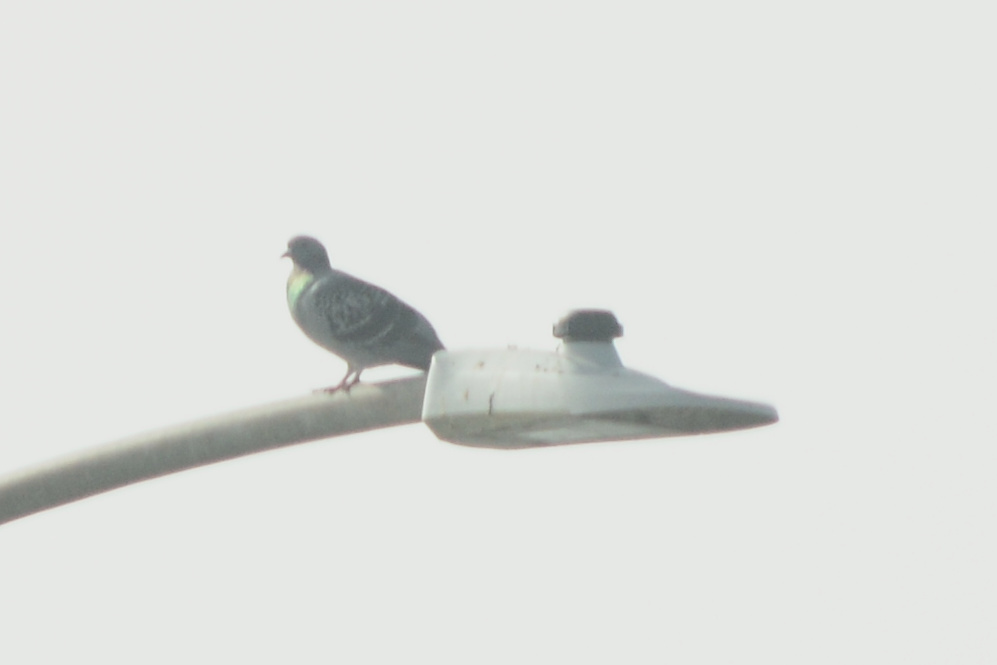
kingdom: Animalia
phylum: Chordata
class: Aves
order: Columbiformes
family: Columbidae
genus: Columba
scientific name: Columba livia
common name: Rock pigeon
